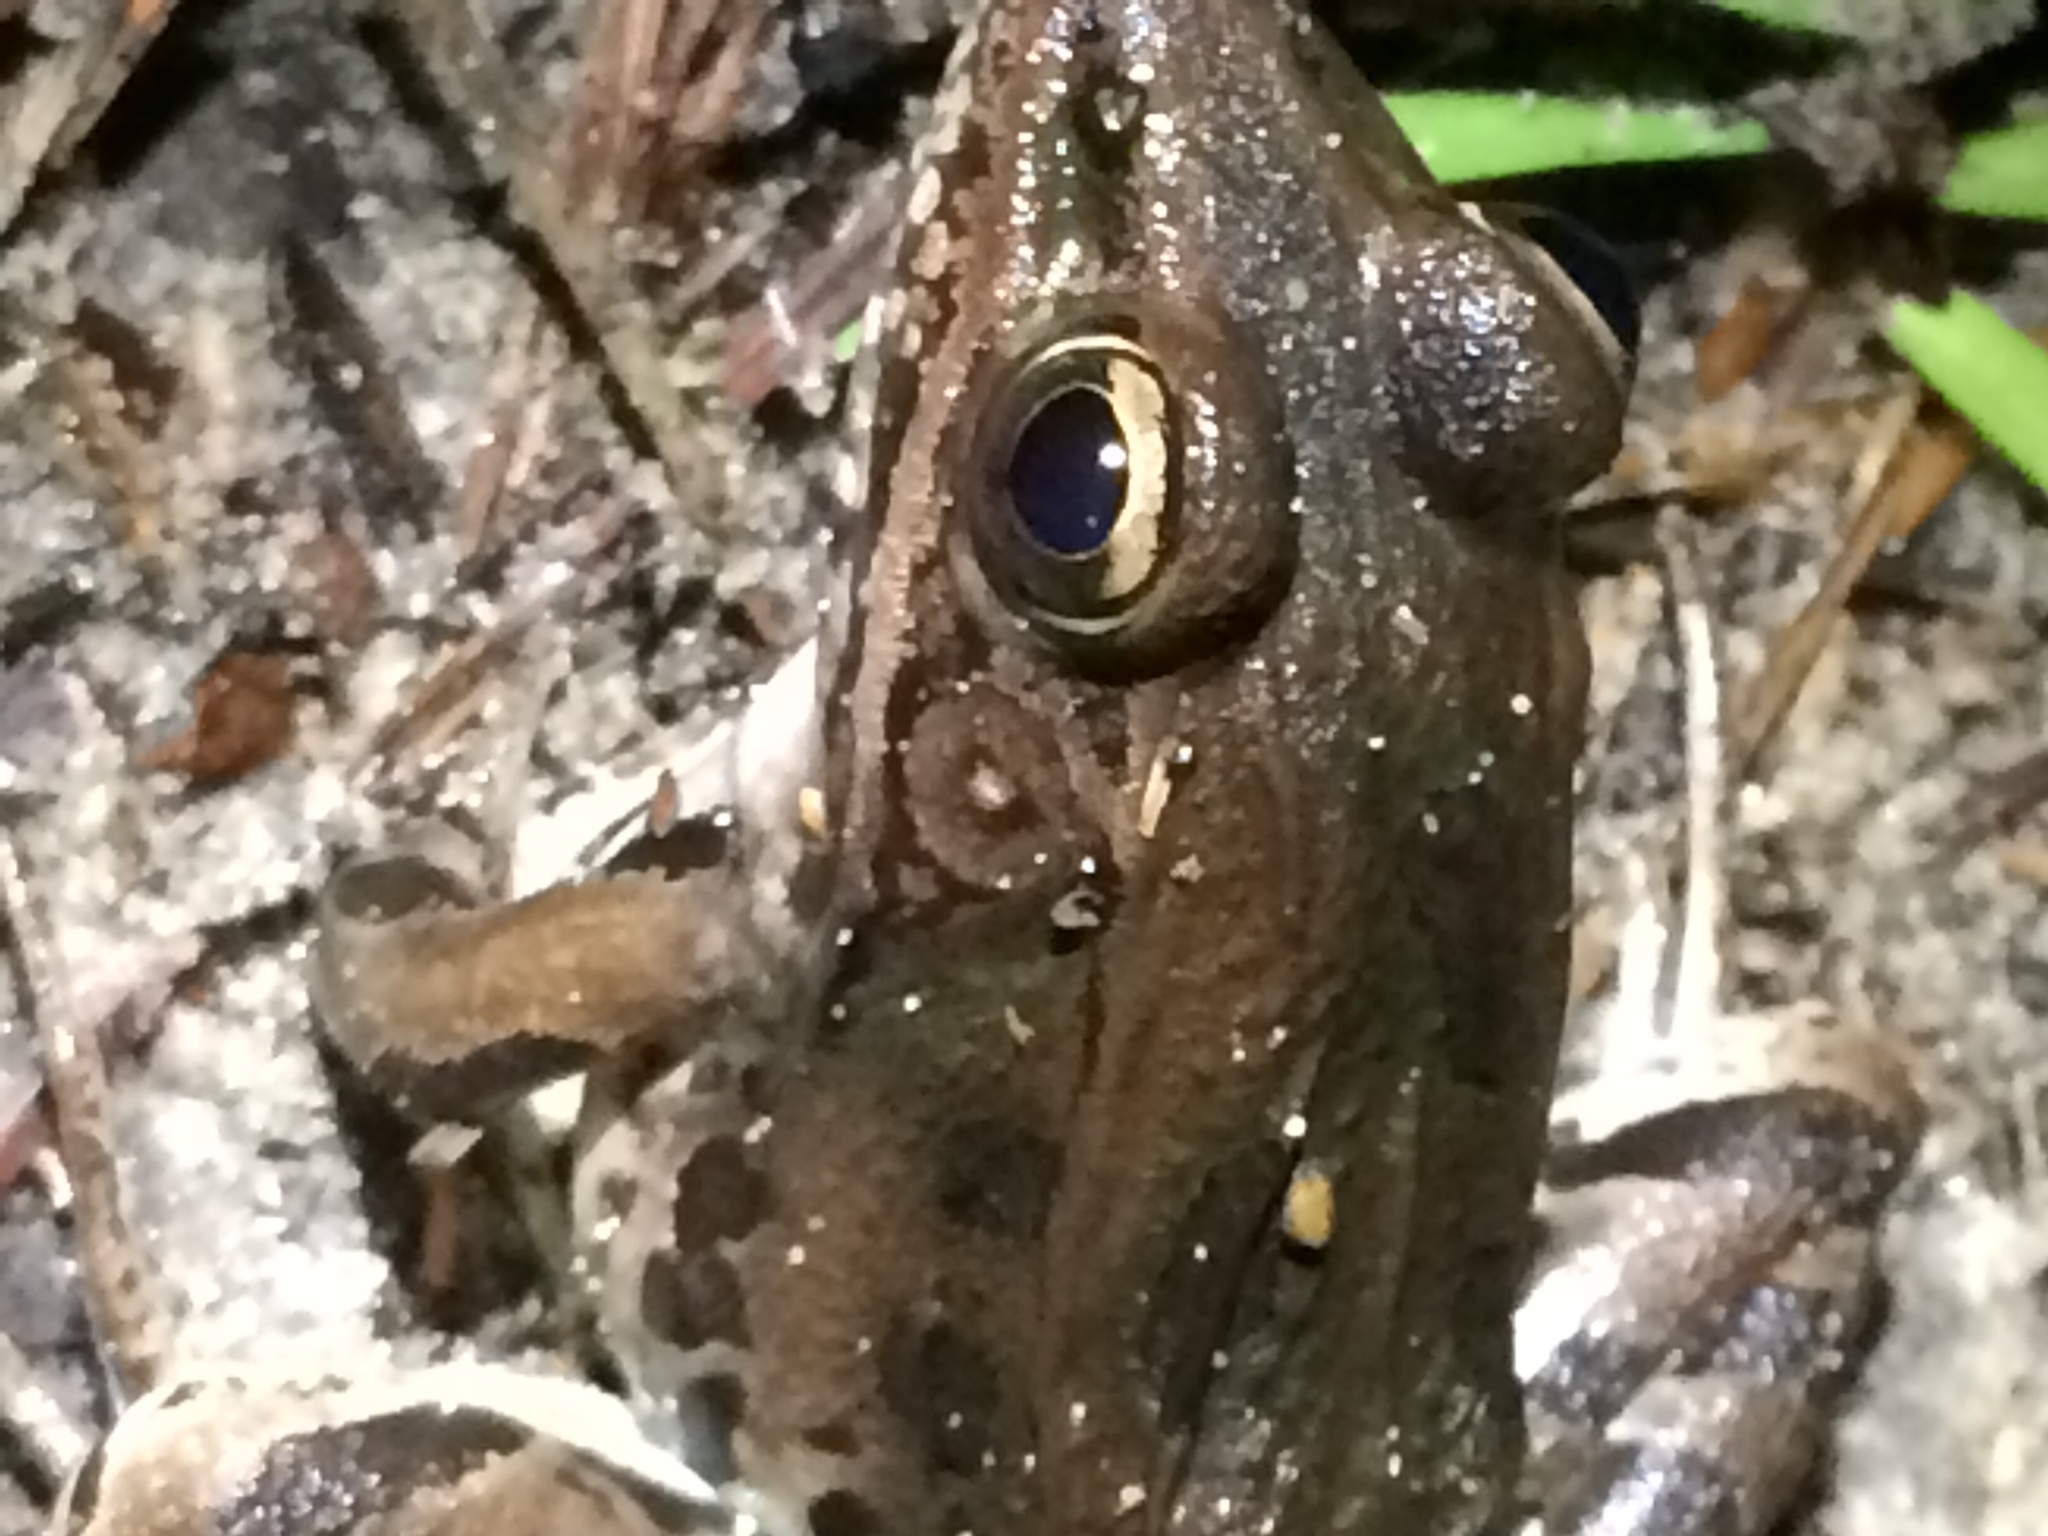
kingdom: Animalia
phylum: Chordata
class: Amphibia
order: Anura
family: Ranidae
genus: Lithobates
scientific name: Lithobates sphenocephalus
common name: Southern leopard frog
